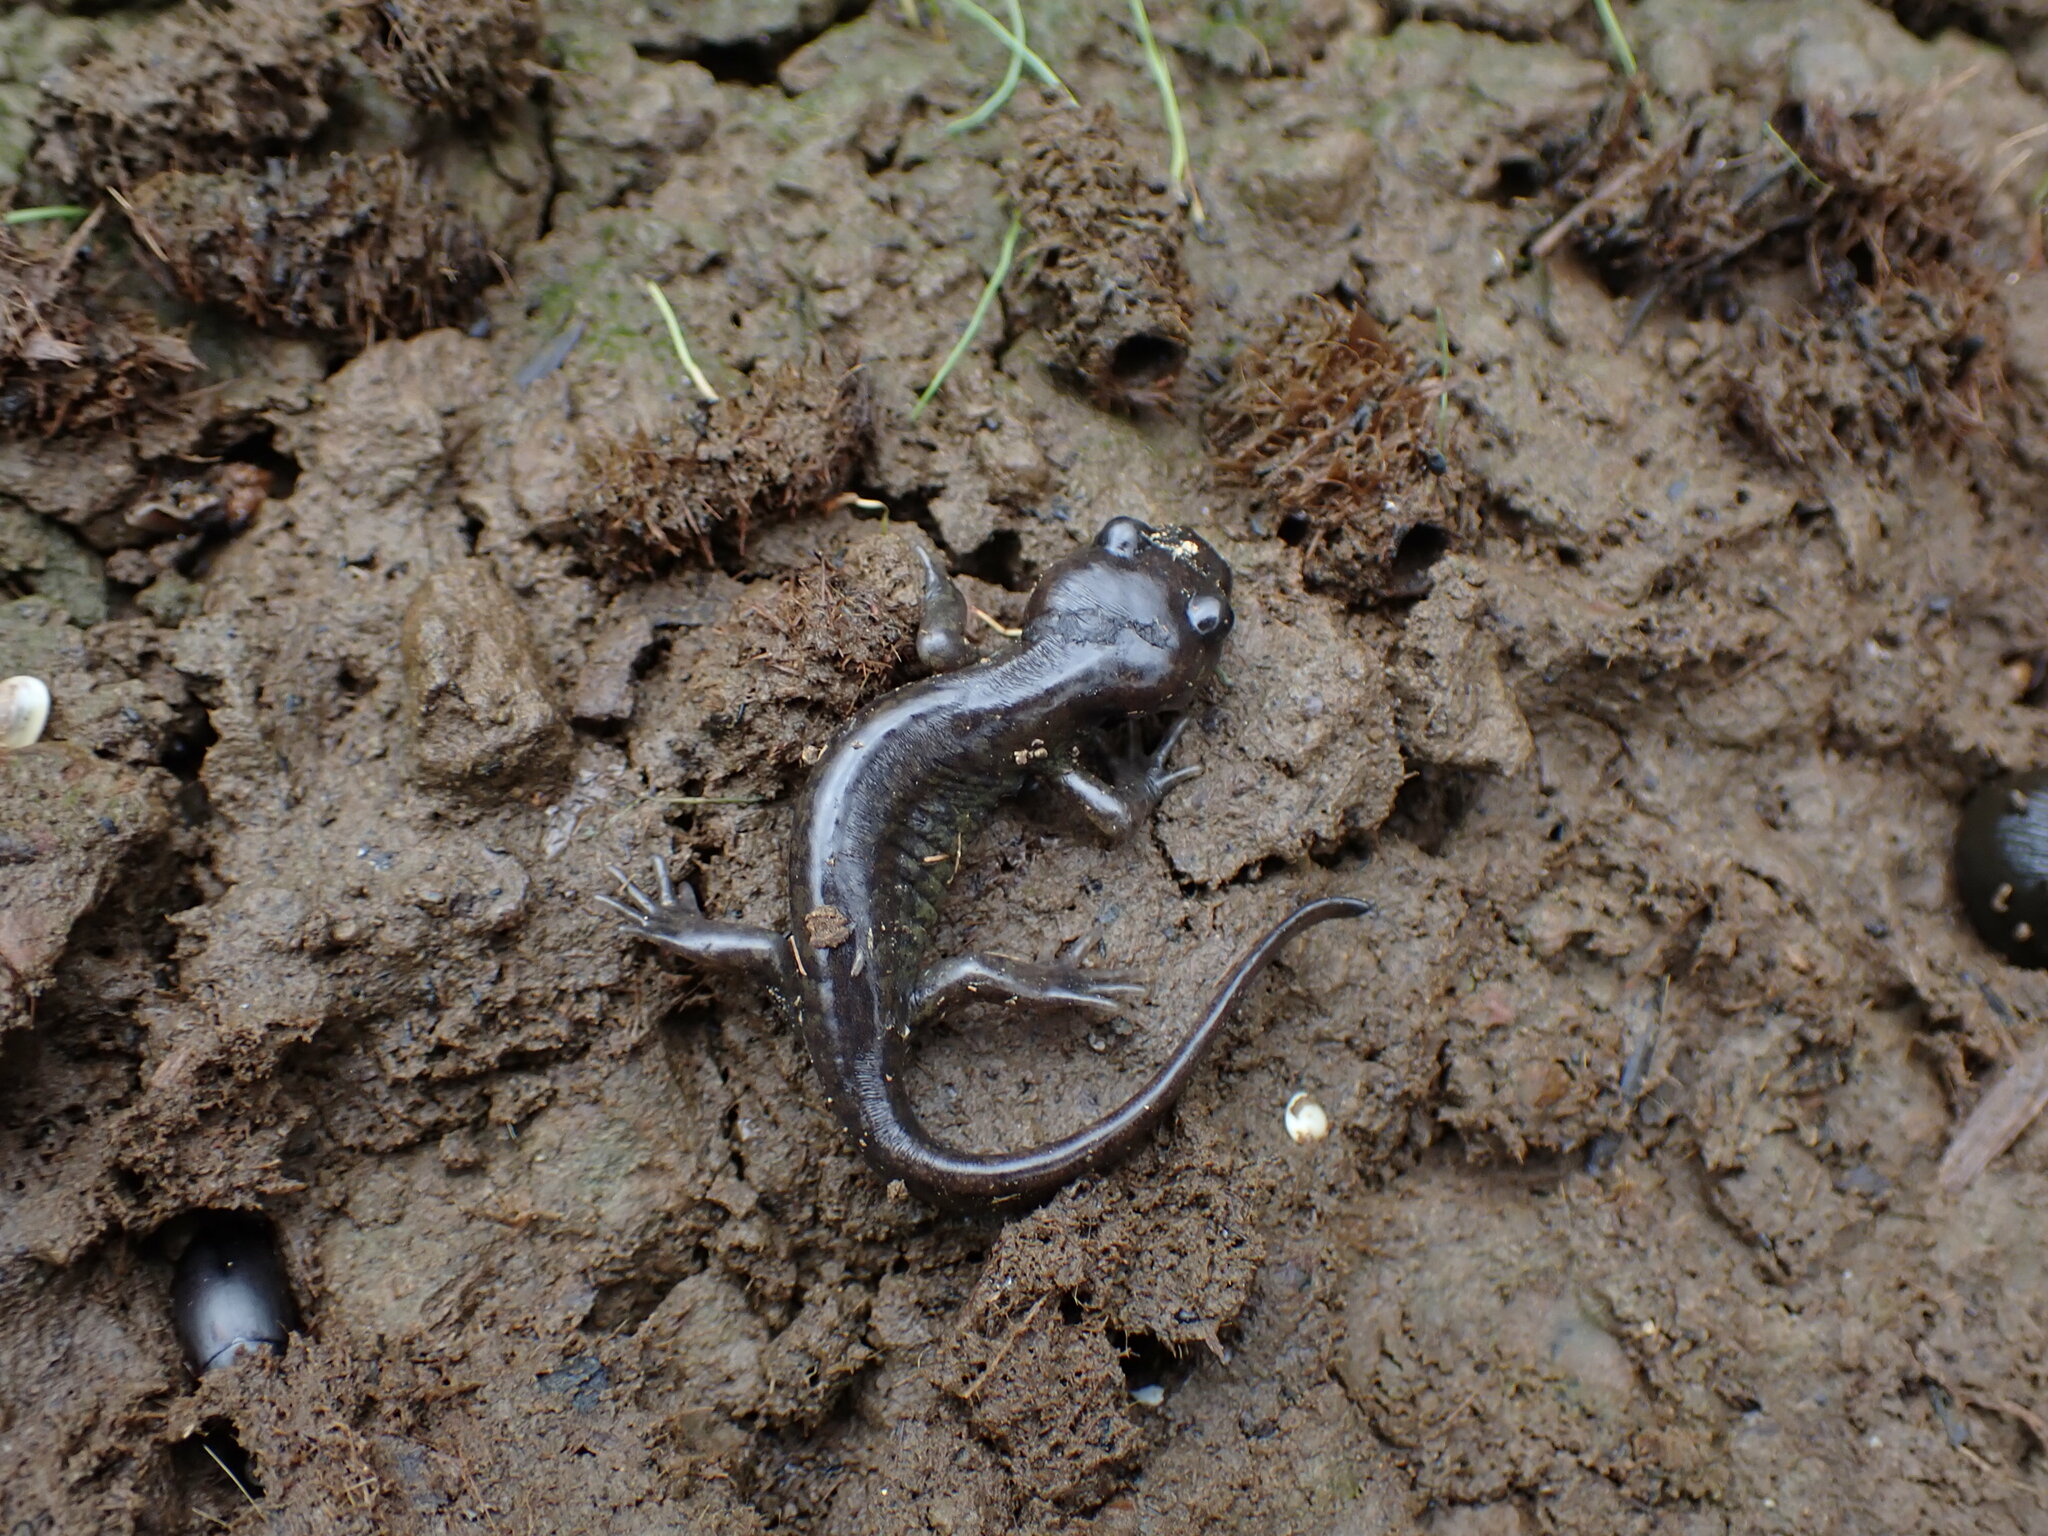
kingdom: Animalia
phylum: Chordata
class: Amphibia
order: Caudata
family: Ambystomatidae
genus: Ambystoma
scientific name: Ambystoma gracile
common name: Northwestern salamander
